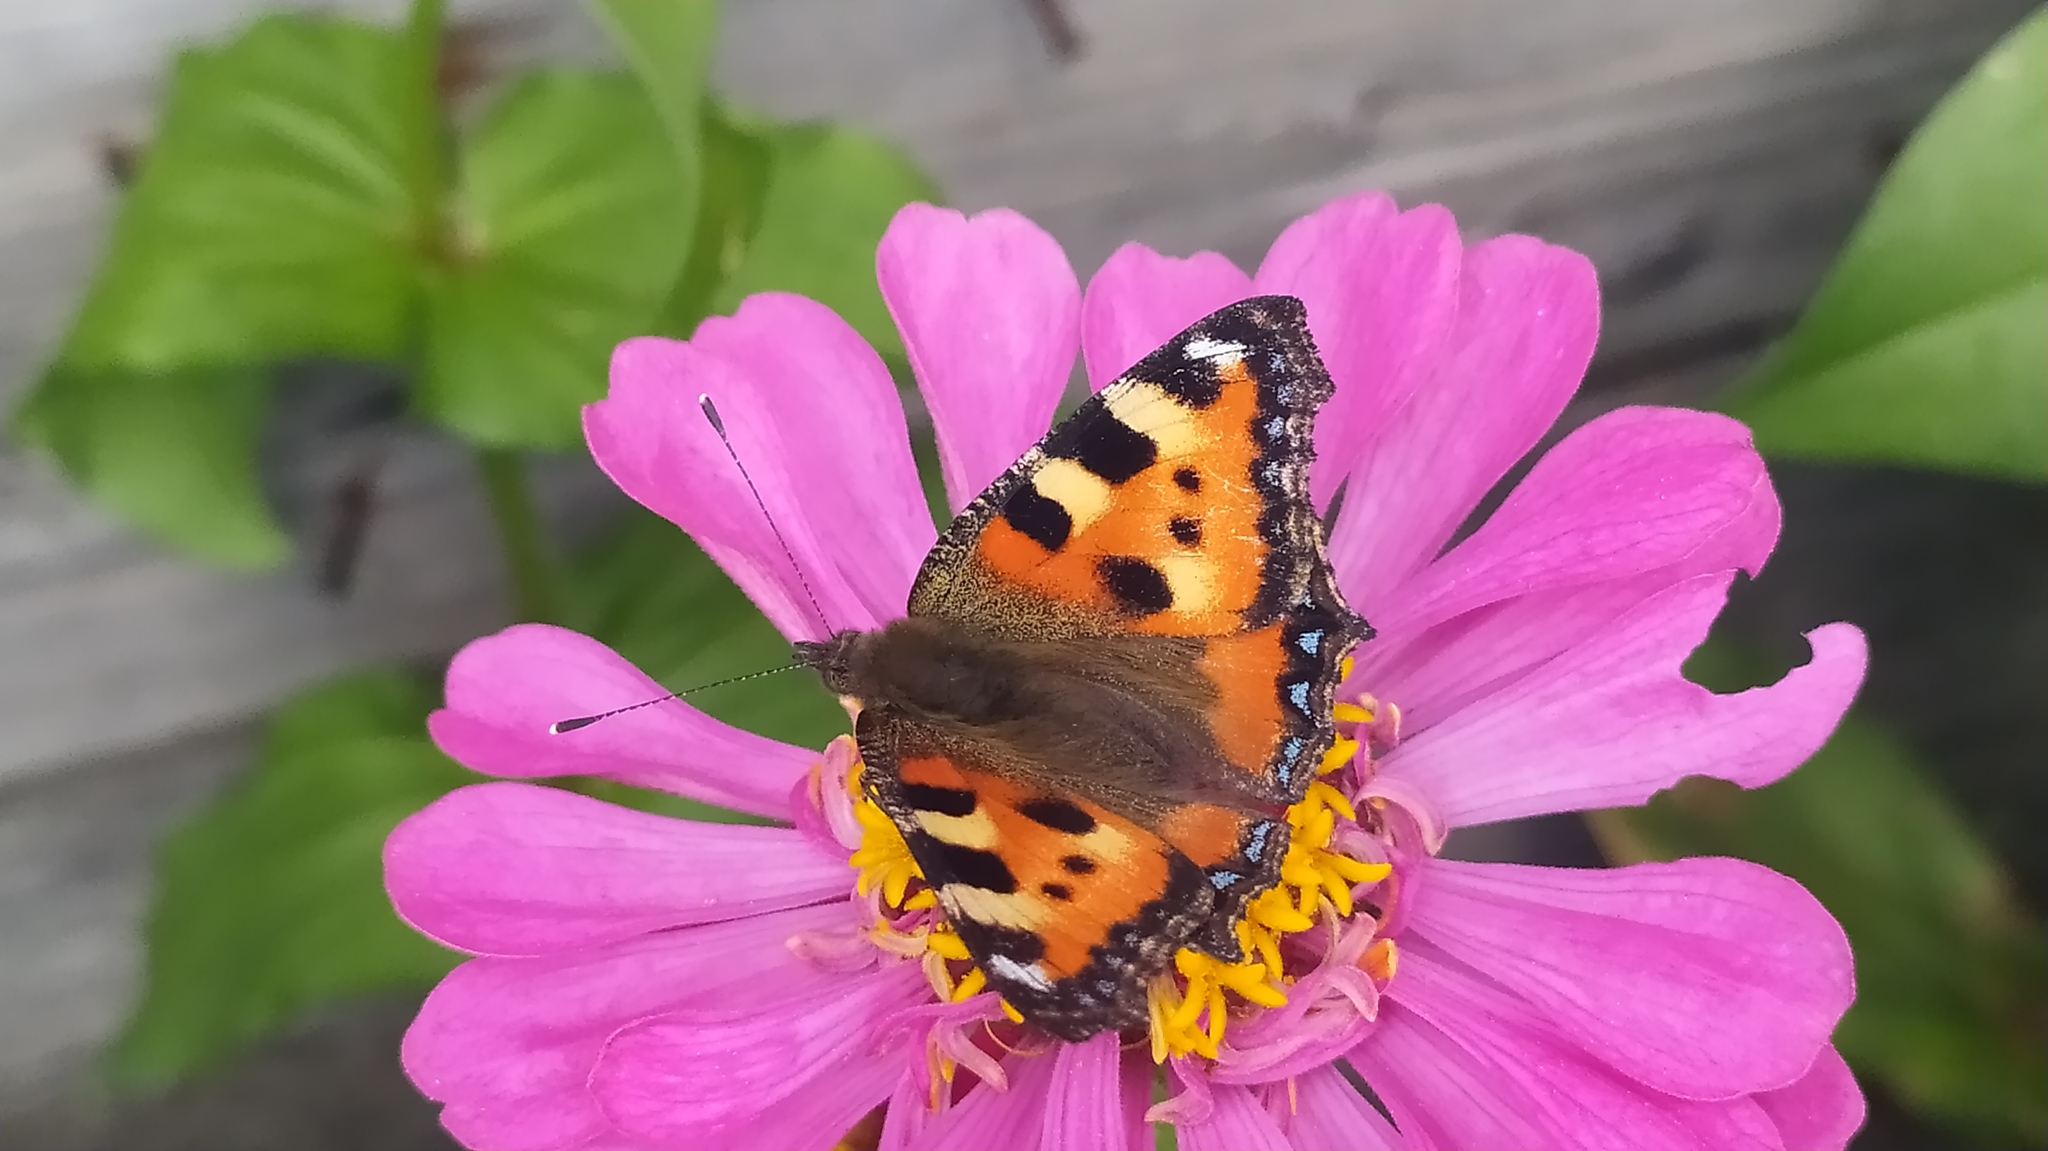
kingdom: Animalia
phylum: Arthropoda
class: Insecta
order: Lepidoptera
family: Nymphalidae
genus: Aglais
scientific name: Aglais urticae
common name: Small tortoiseshell
